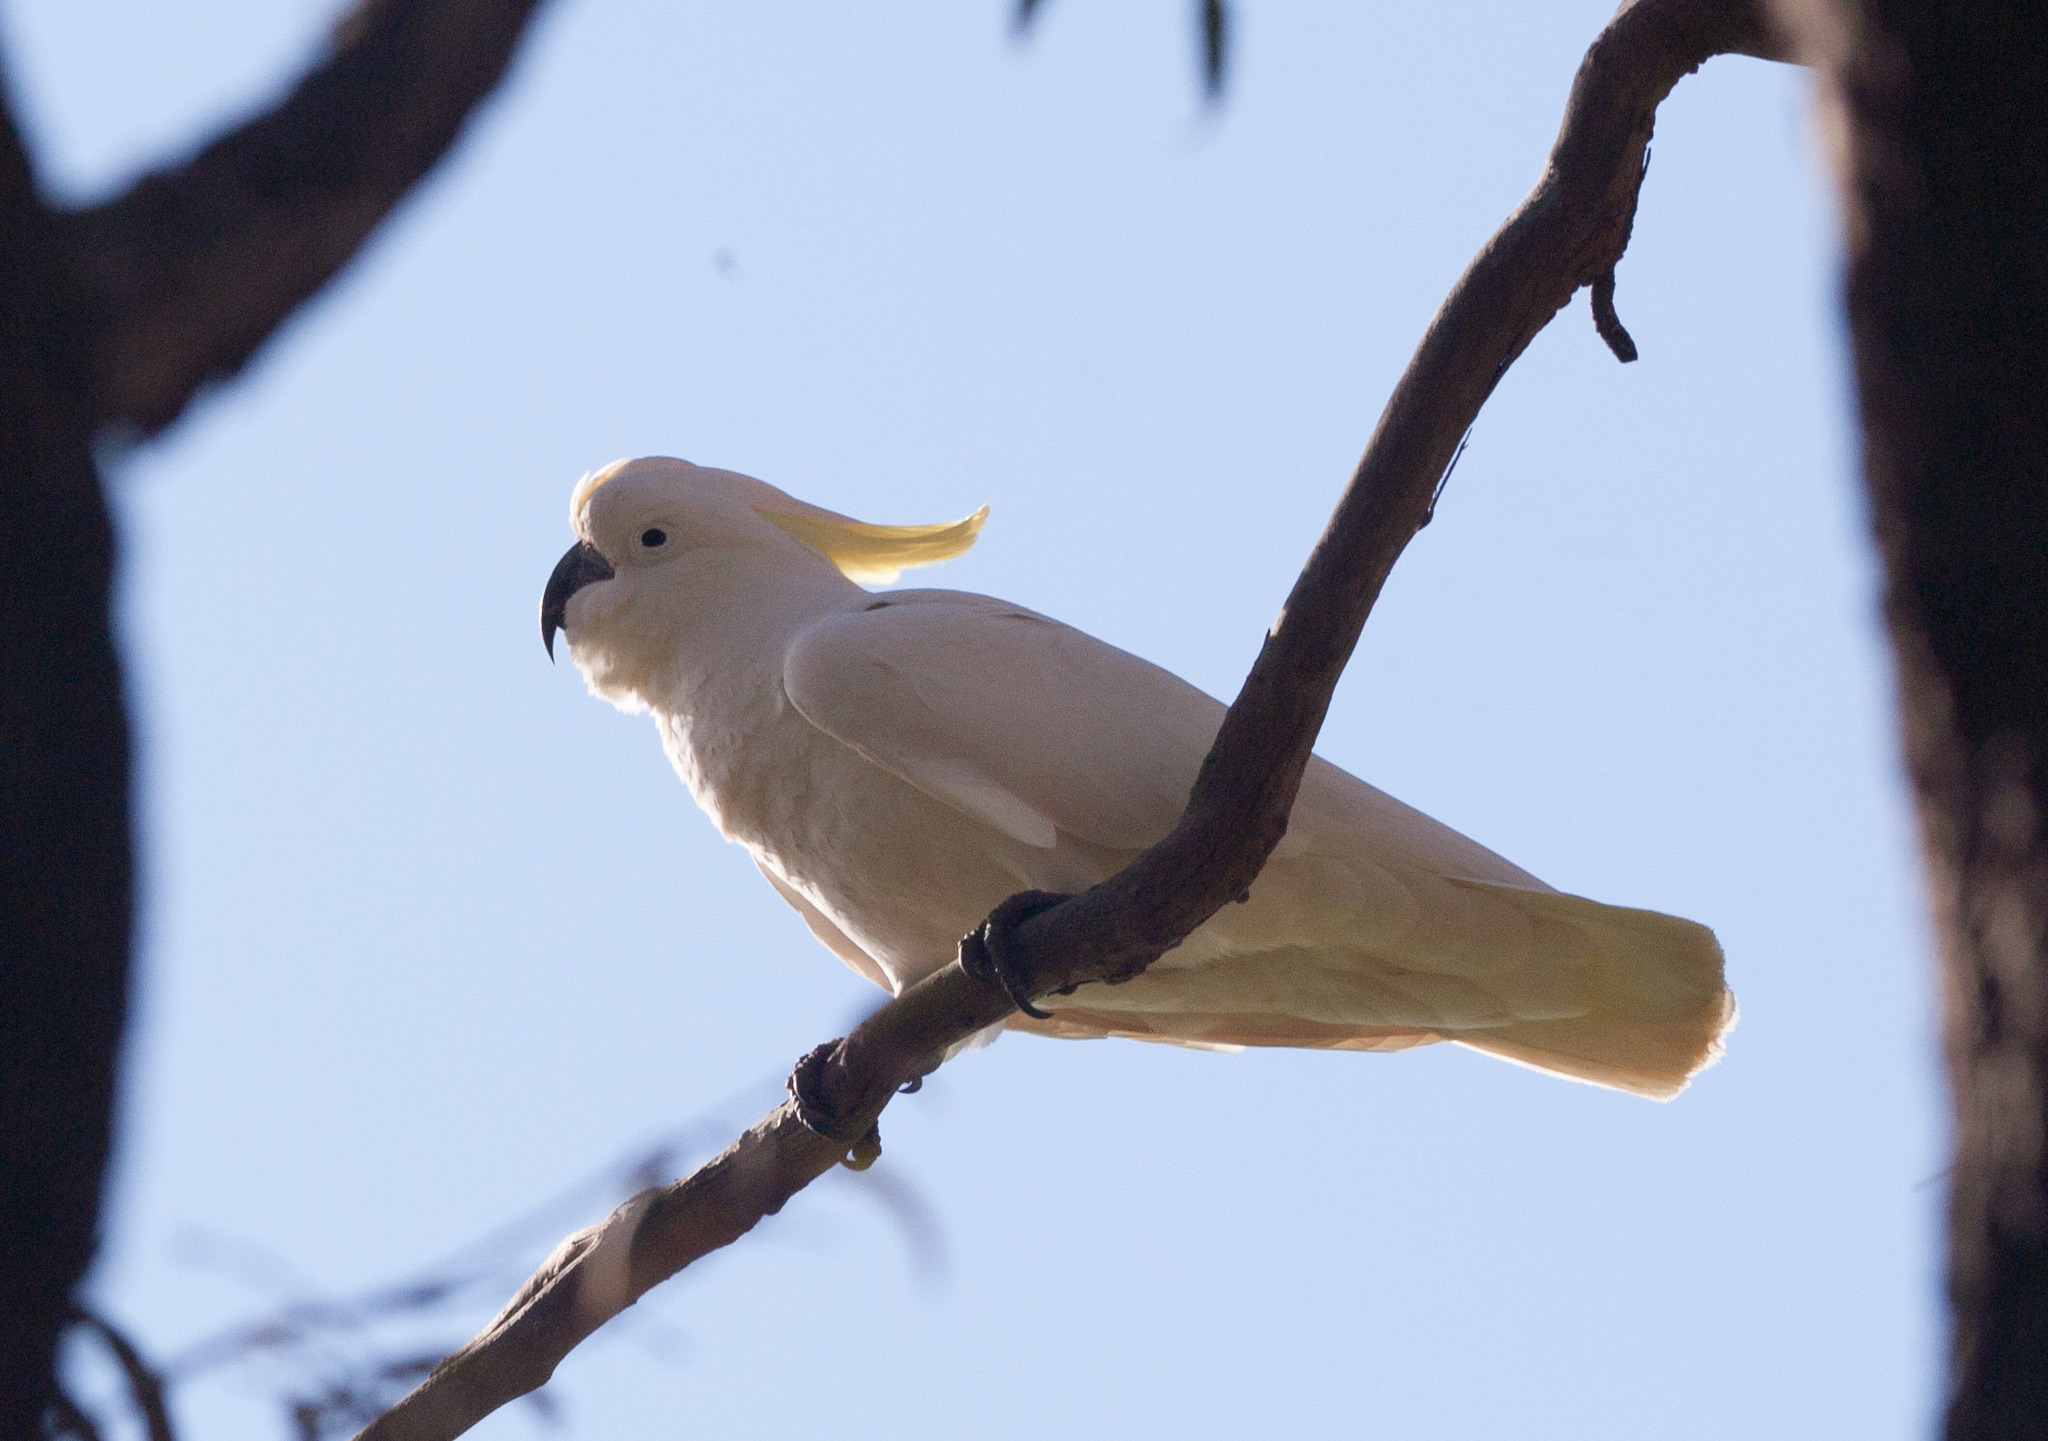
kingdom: Animalia
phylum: Chordata
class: Aves
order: Psittaciformes
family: Psittacidae
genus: Cacatua
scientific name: Cacatua galerita
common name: Sulphur-crested cockatoo
